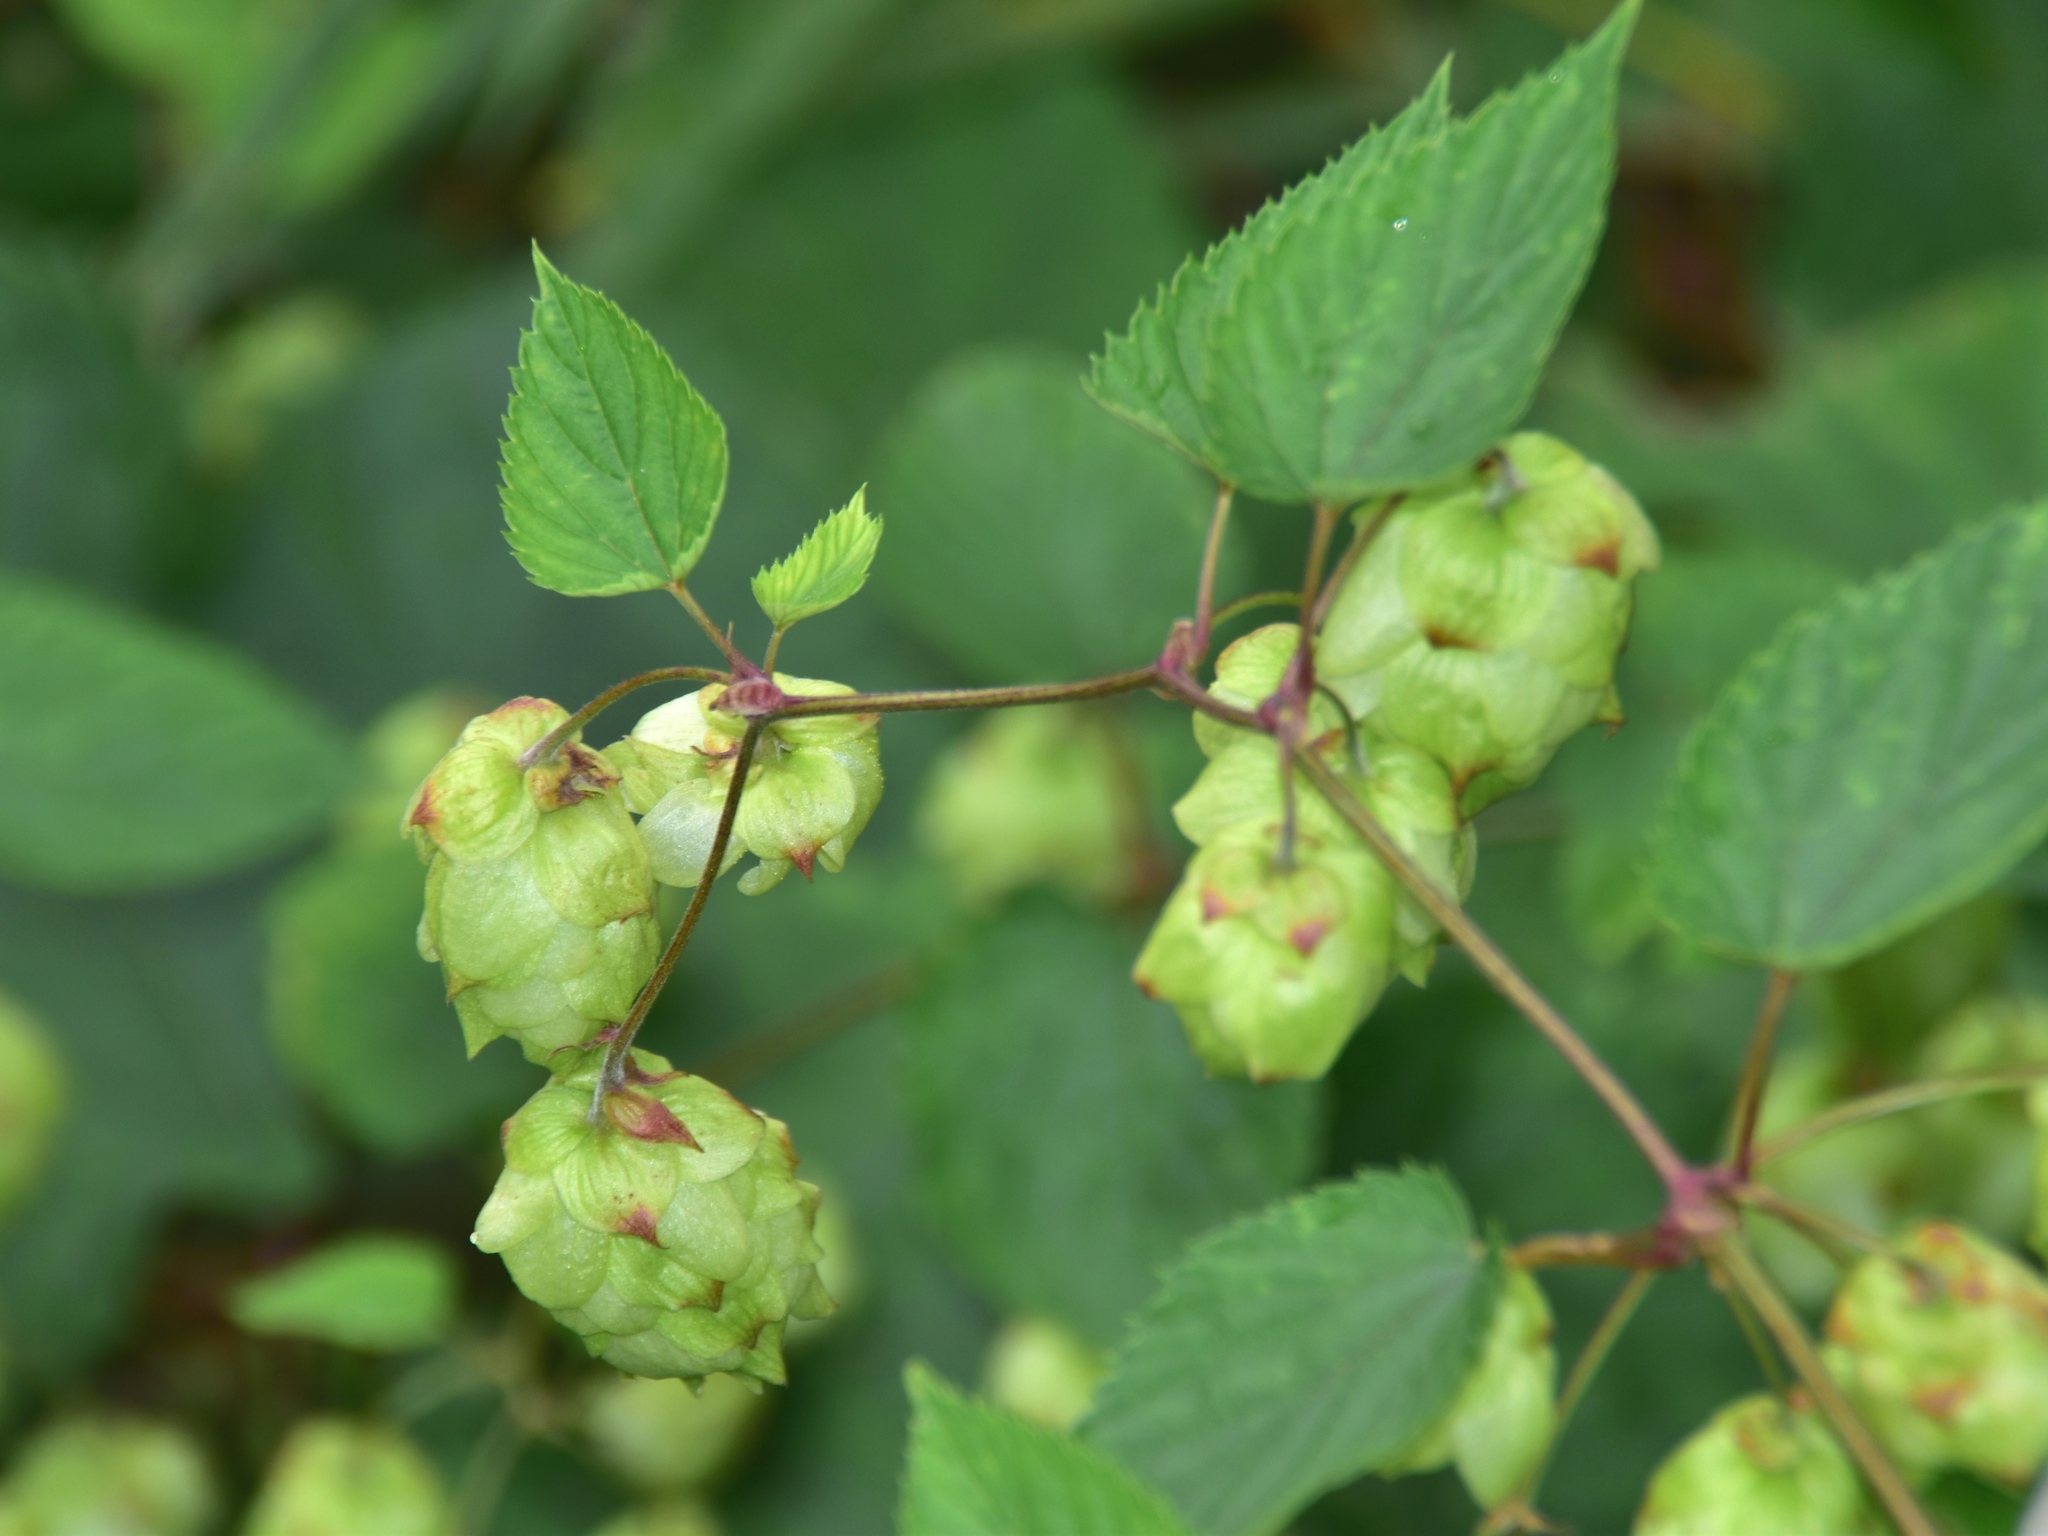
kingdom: Plantae
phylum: Tracheophyta
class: Magnoliopsida
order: Rosales
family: Cannabaceae
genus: Humulus
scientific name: Humulus lupulus
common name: Hop
